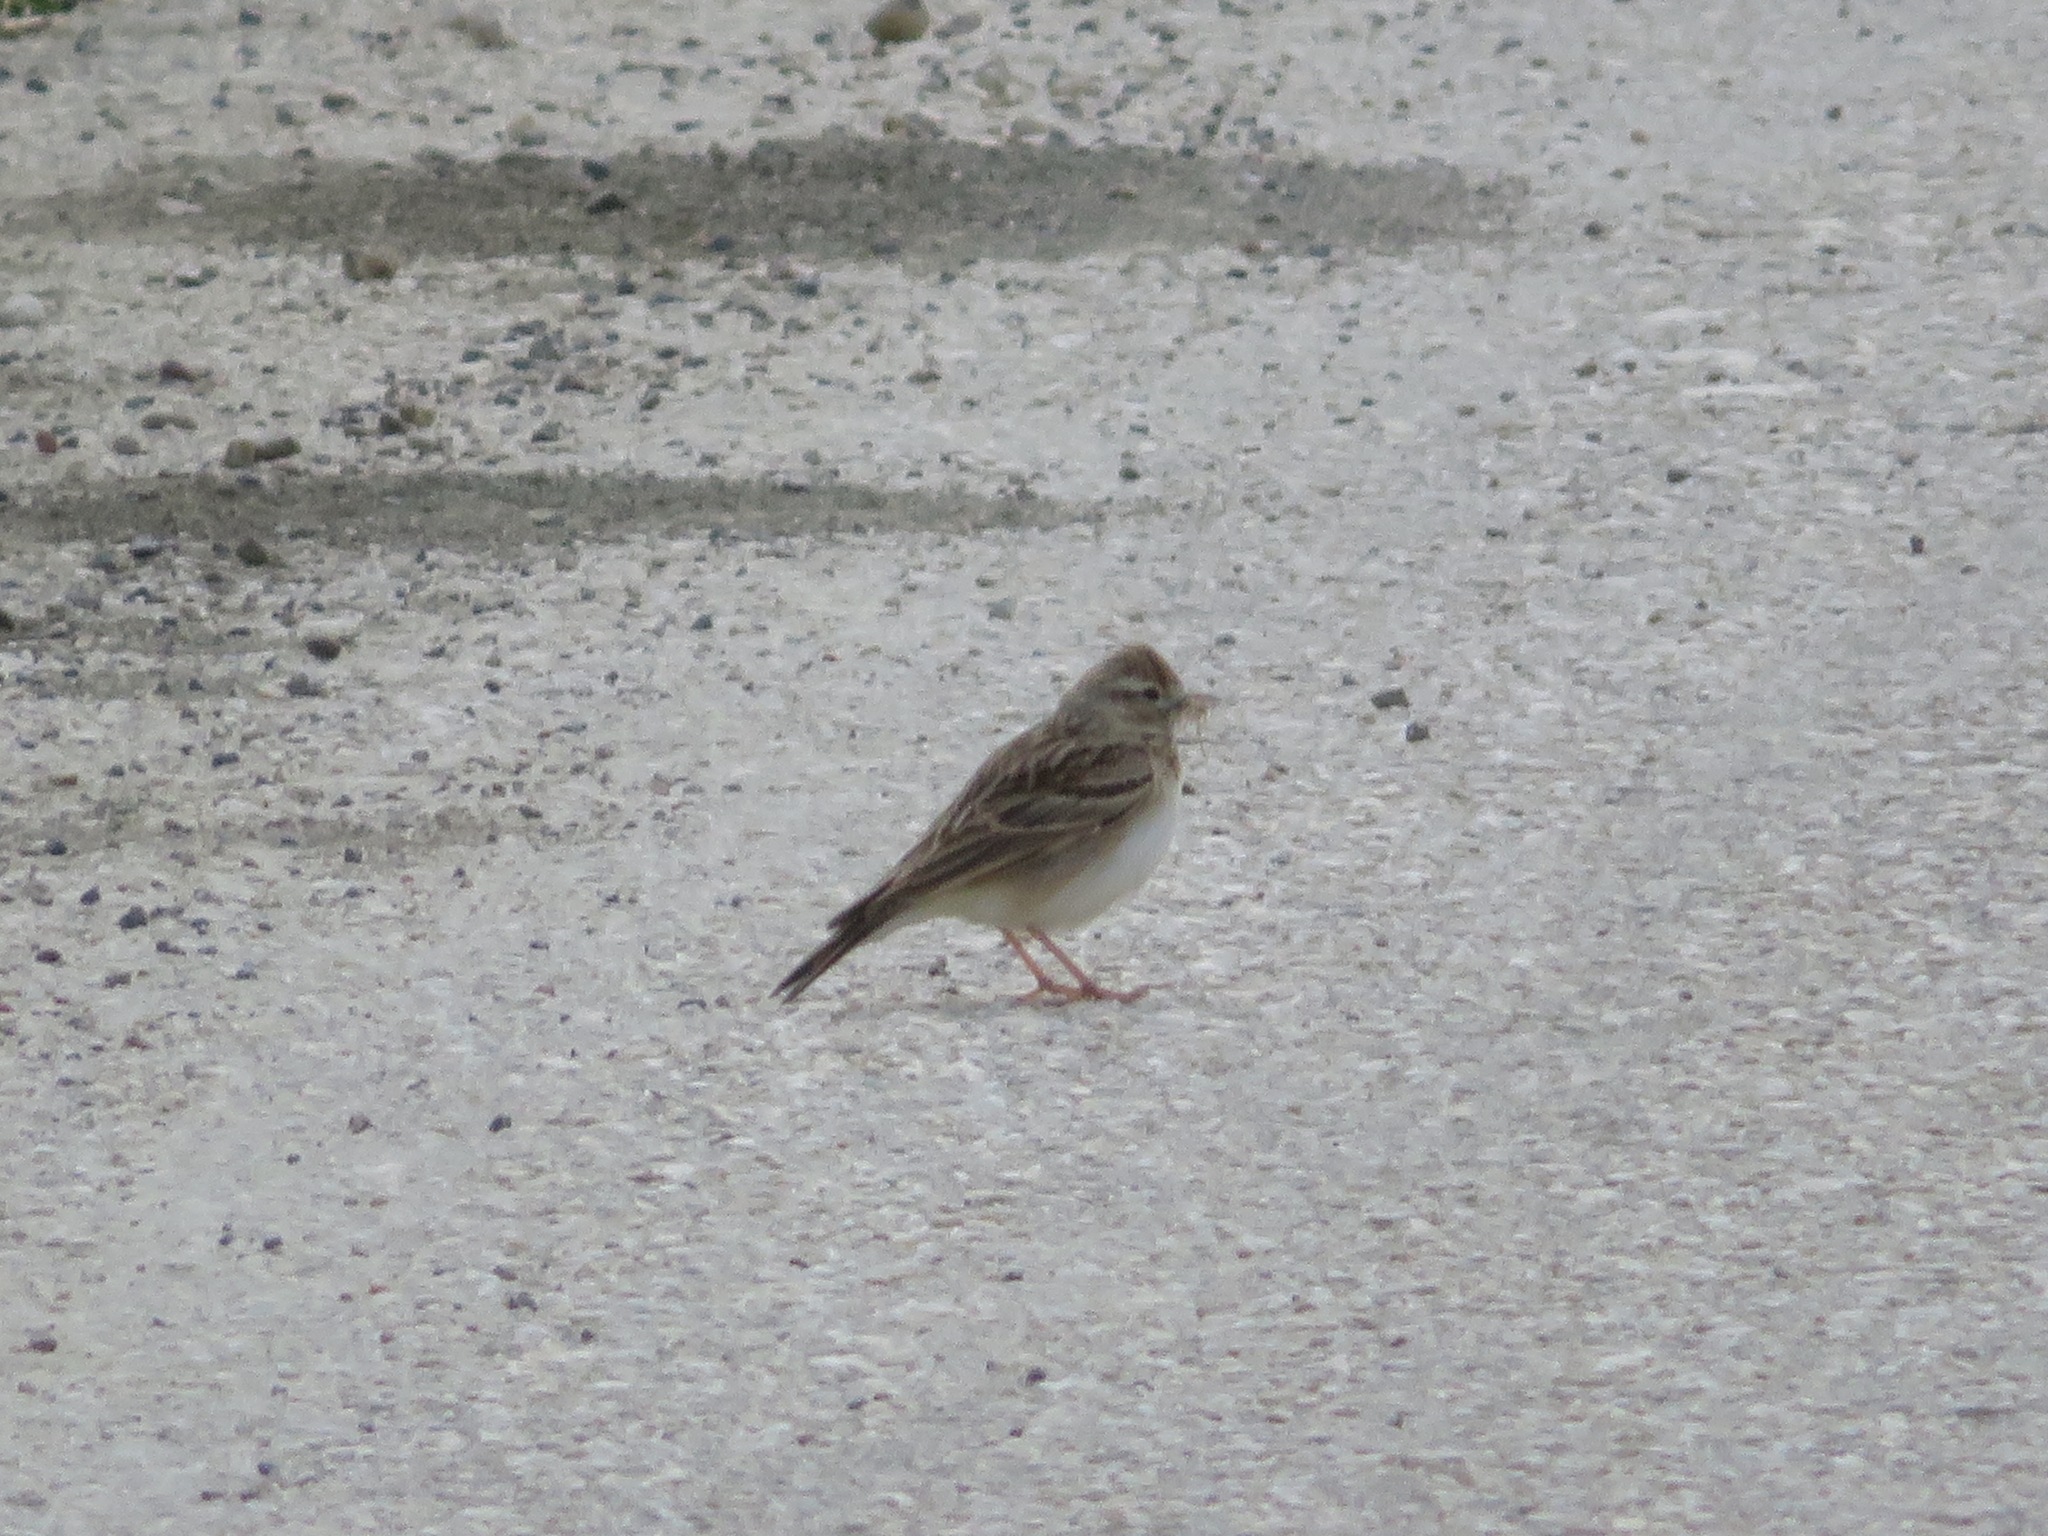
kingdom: Animalia
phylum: Chordata
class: Aves
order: Passeriformes
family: Alaudidae
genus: Calandrella
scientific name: Calandrella brachydactyla
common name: Greater short-toed lark
